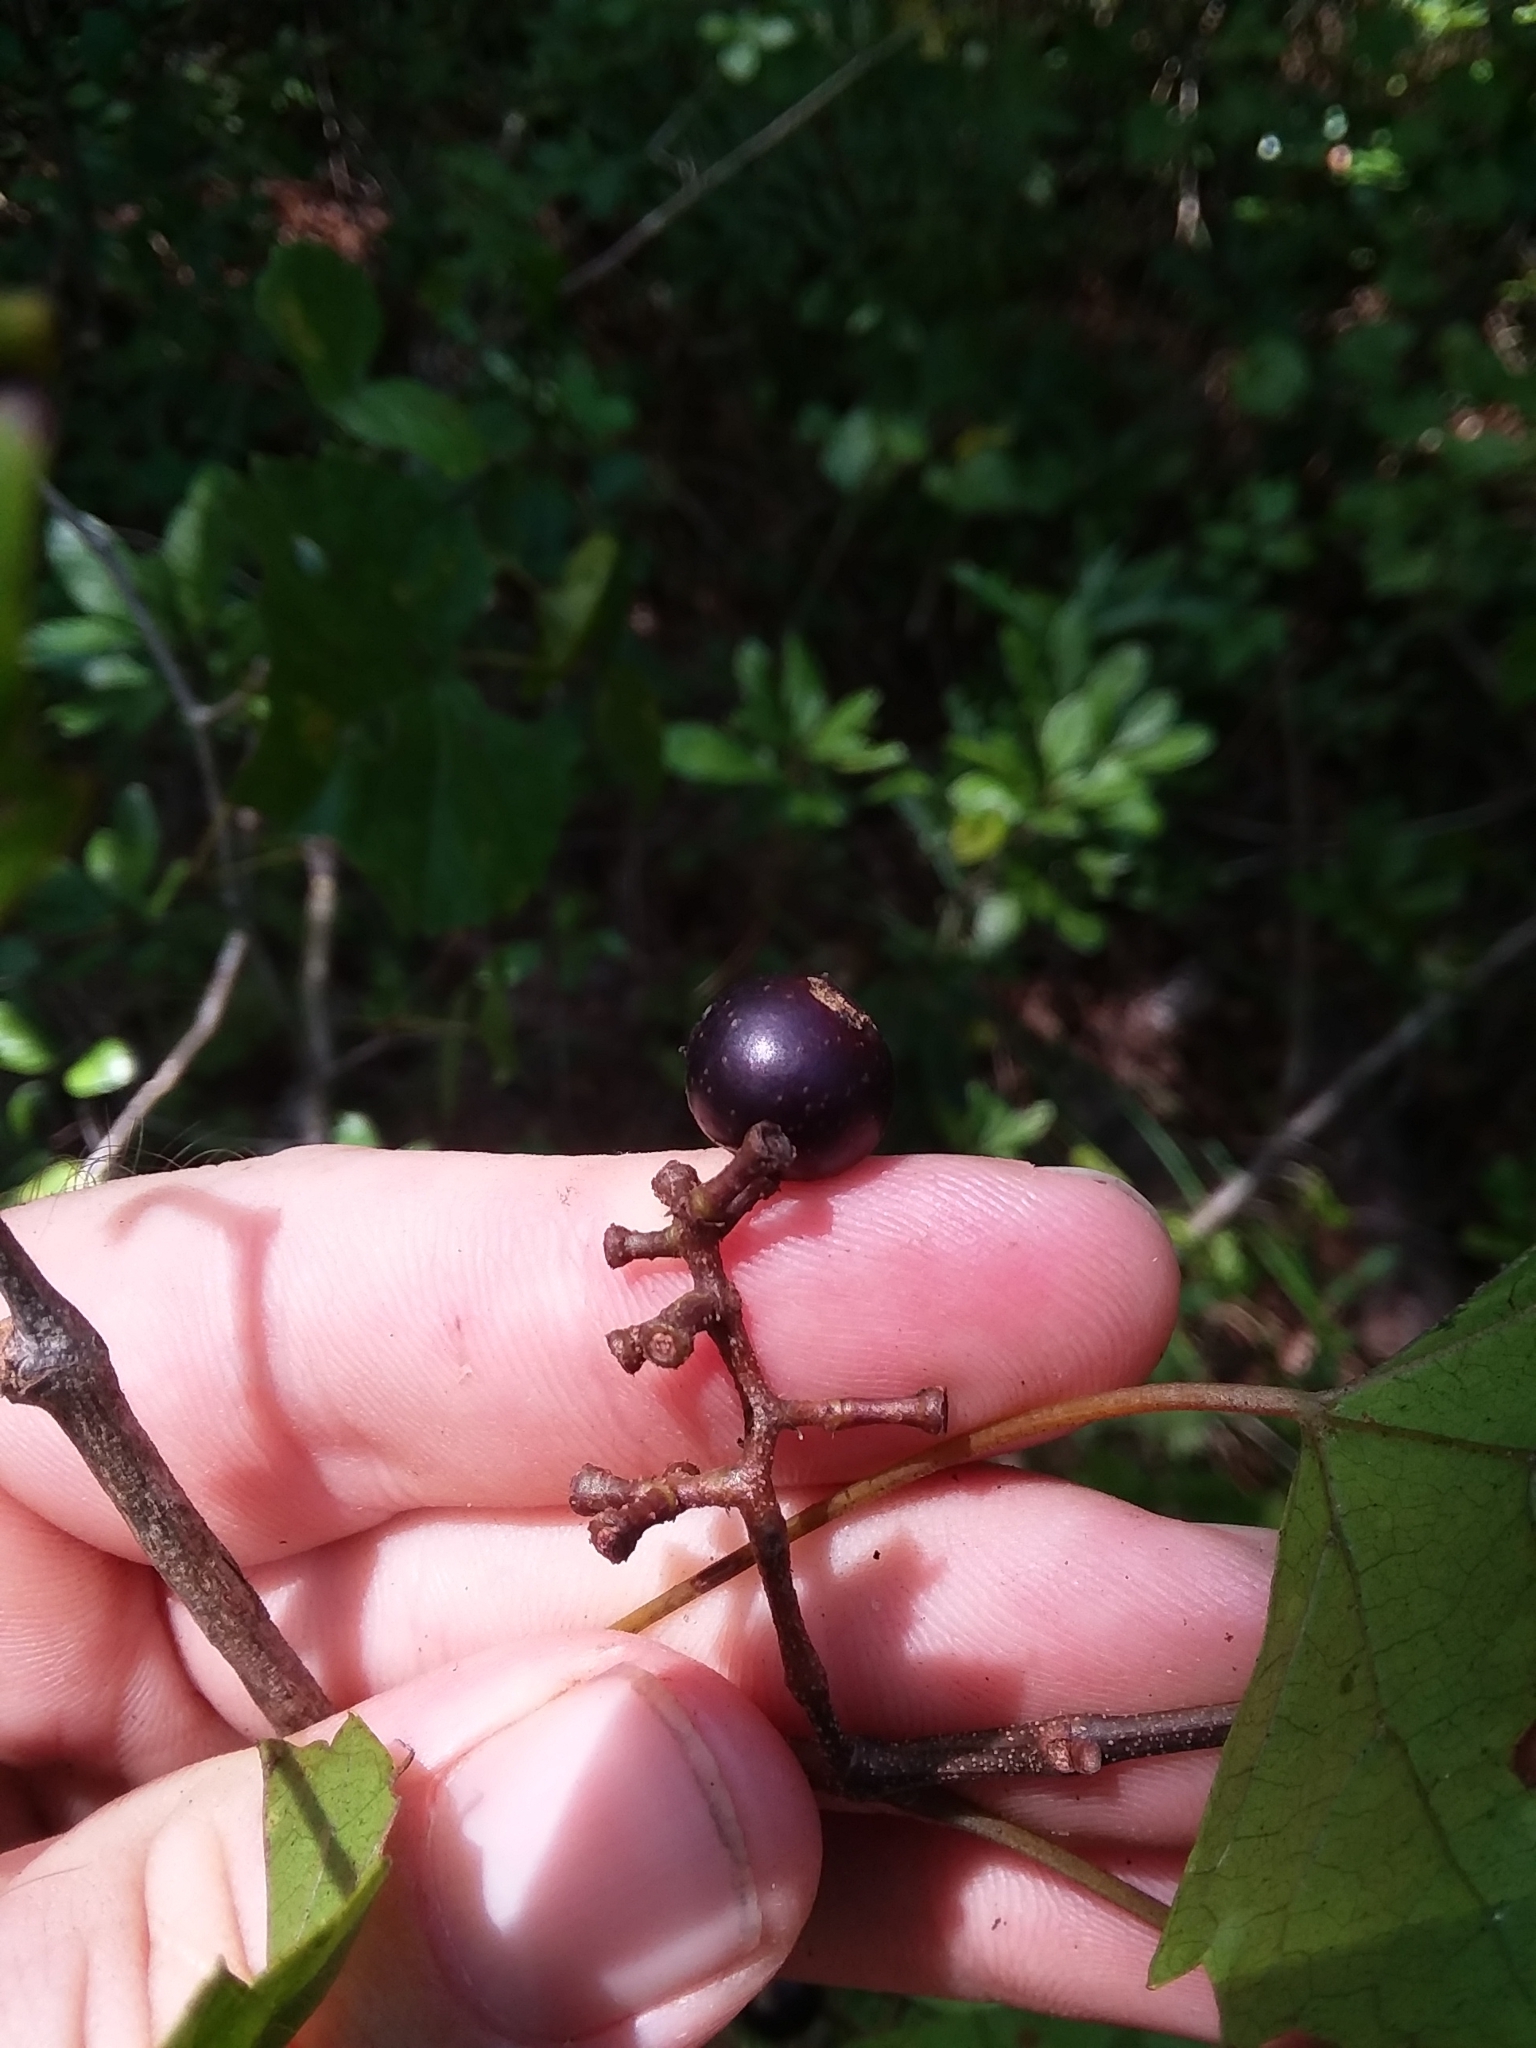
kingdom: Plantae
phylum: Tracheophyta
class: Magnoliopsida
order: Vitales
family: Vitaceae
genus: Vitis
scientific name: Vitis rotundifolia
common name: Muscadine grape
